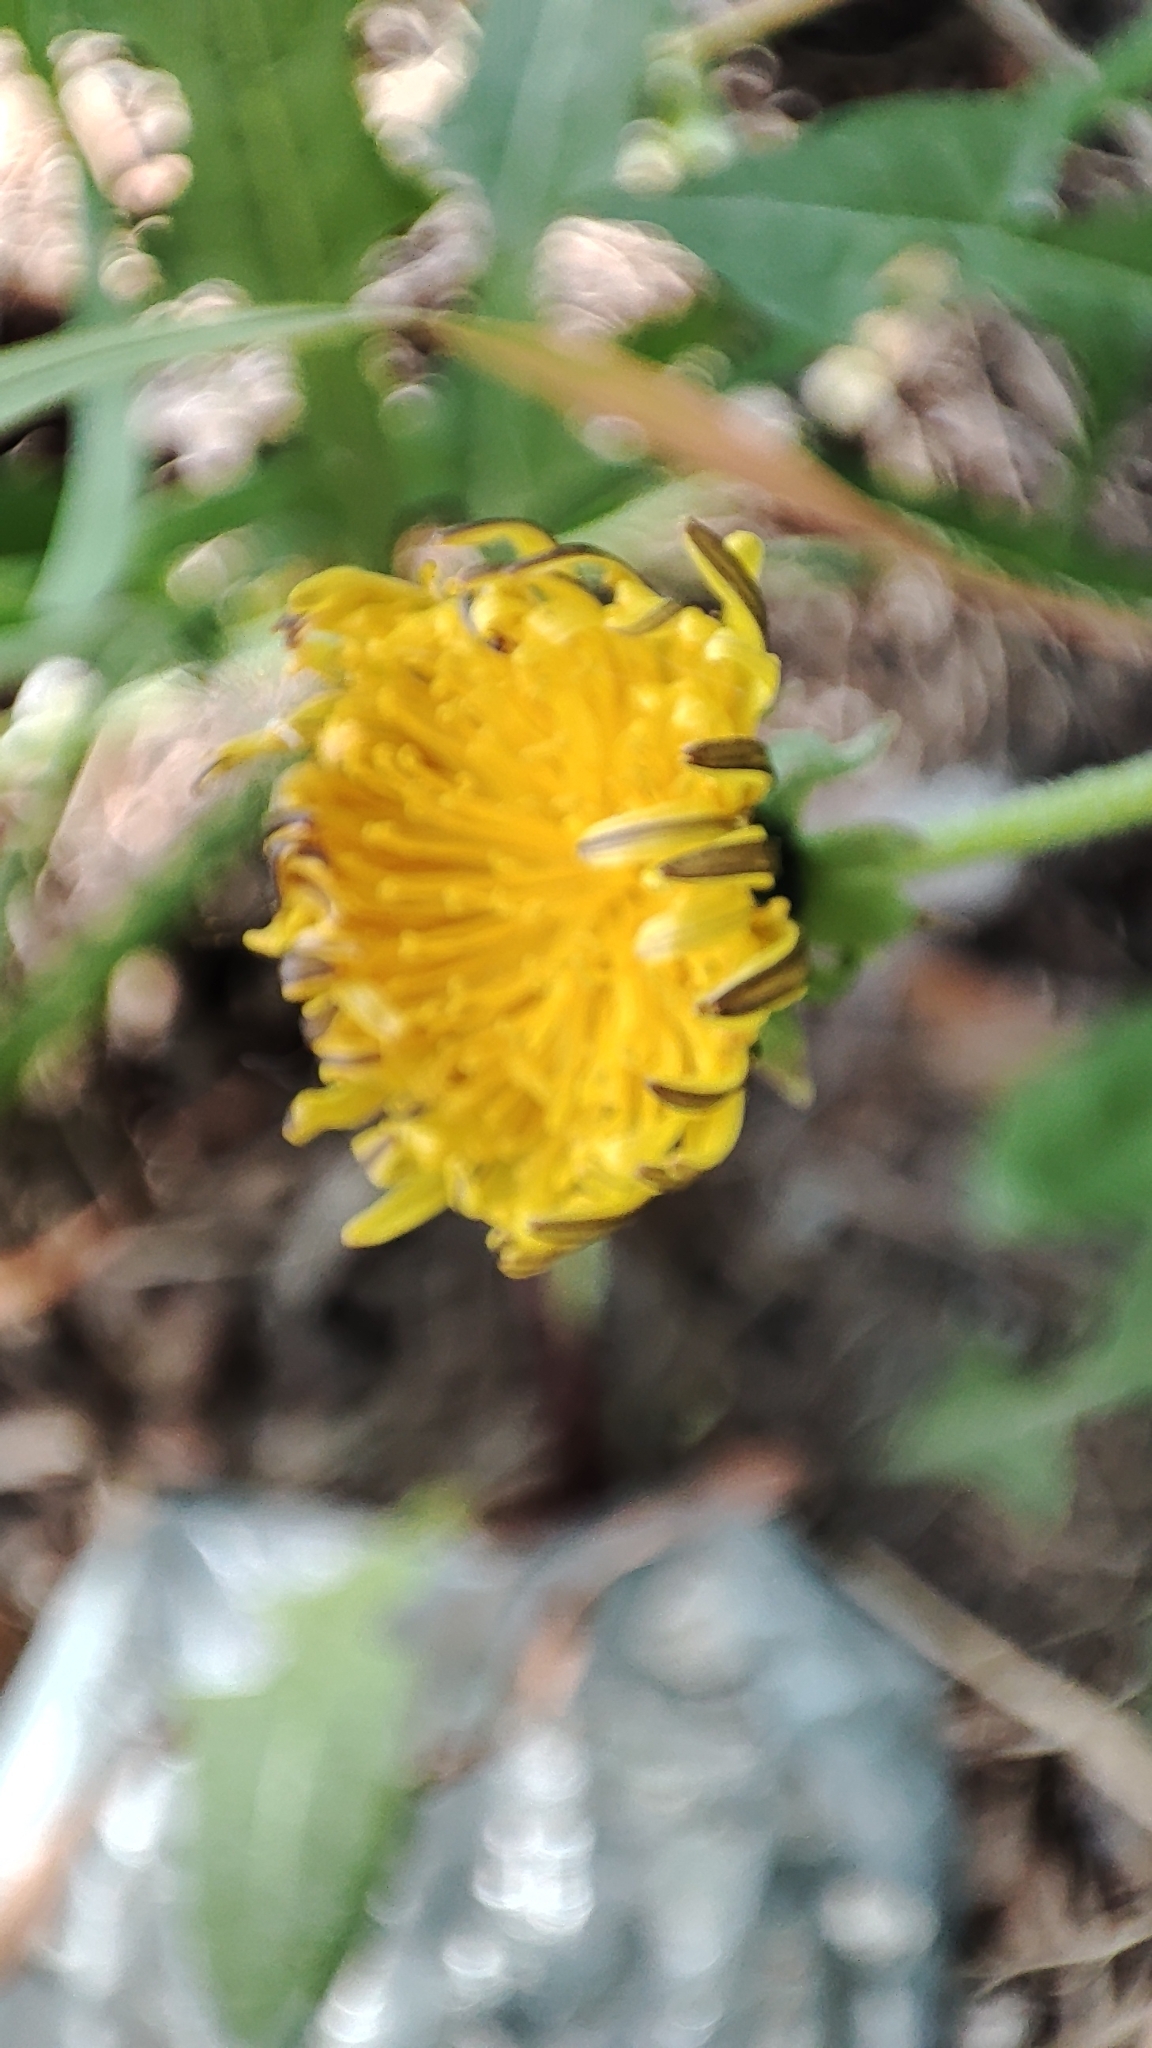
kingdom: Plantae
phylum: Tracheophyta
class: Magnoliopsida
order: Asterales
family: Asteraceae
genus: Taraxacum
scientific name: Taraxacum officinale
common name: Common dandelion
